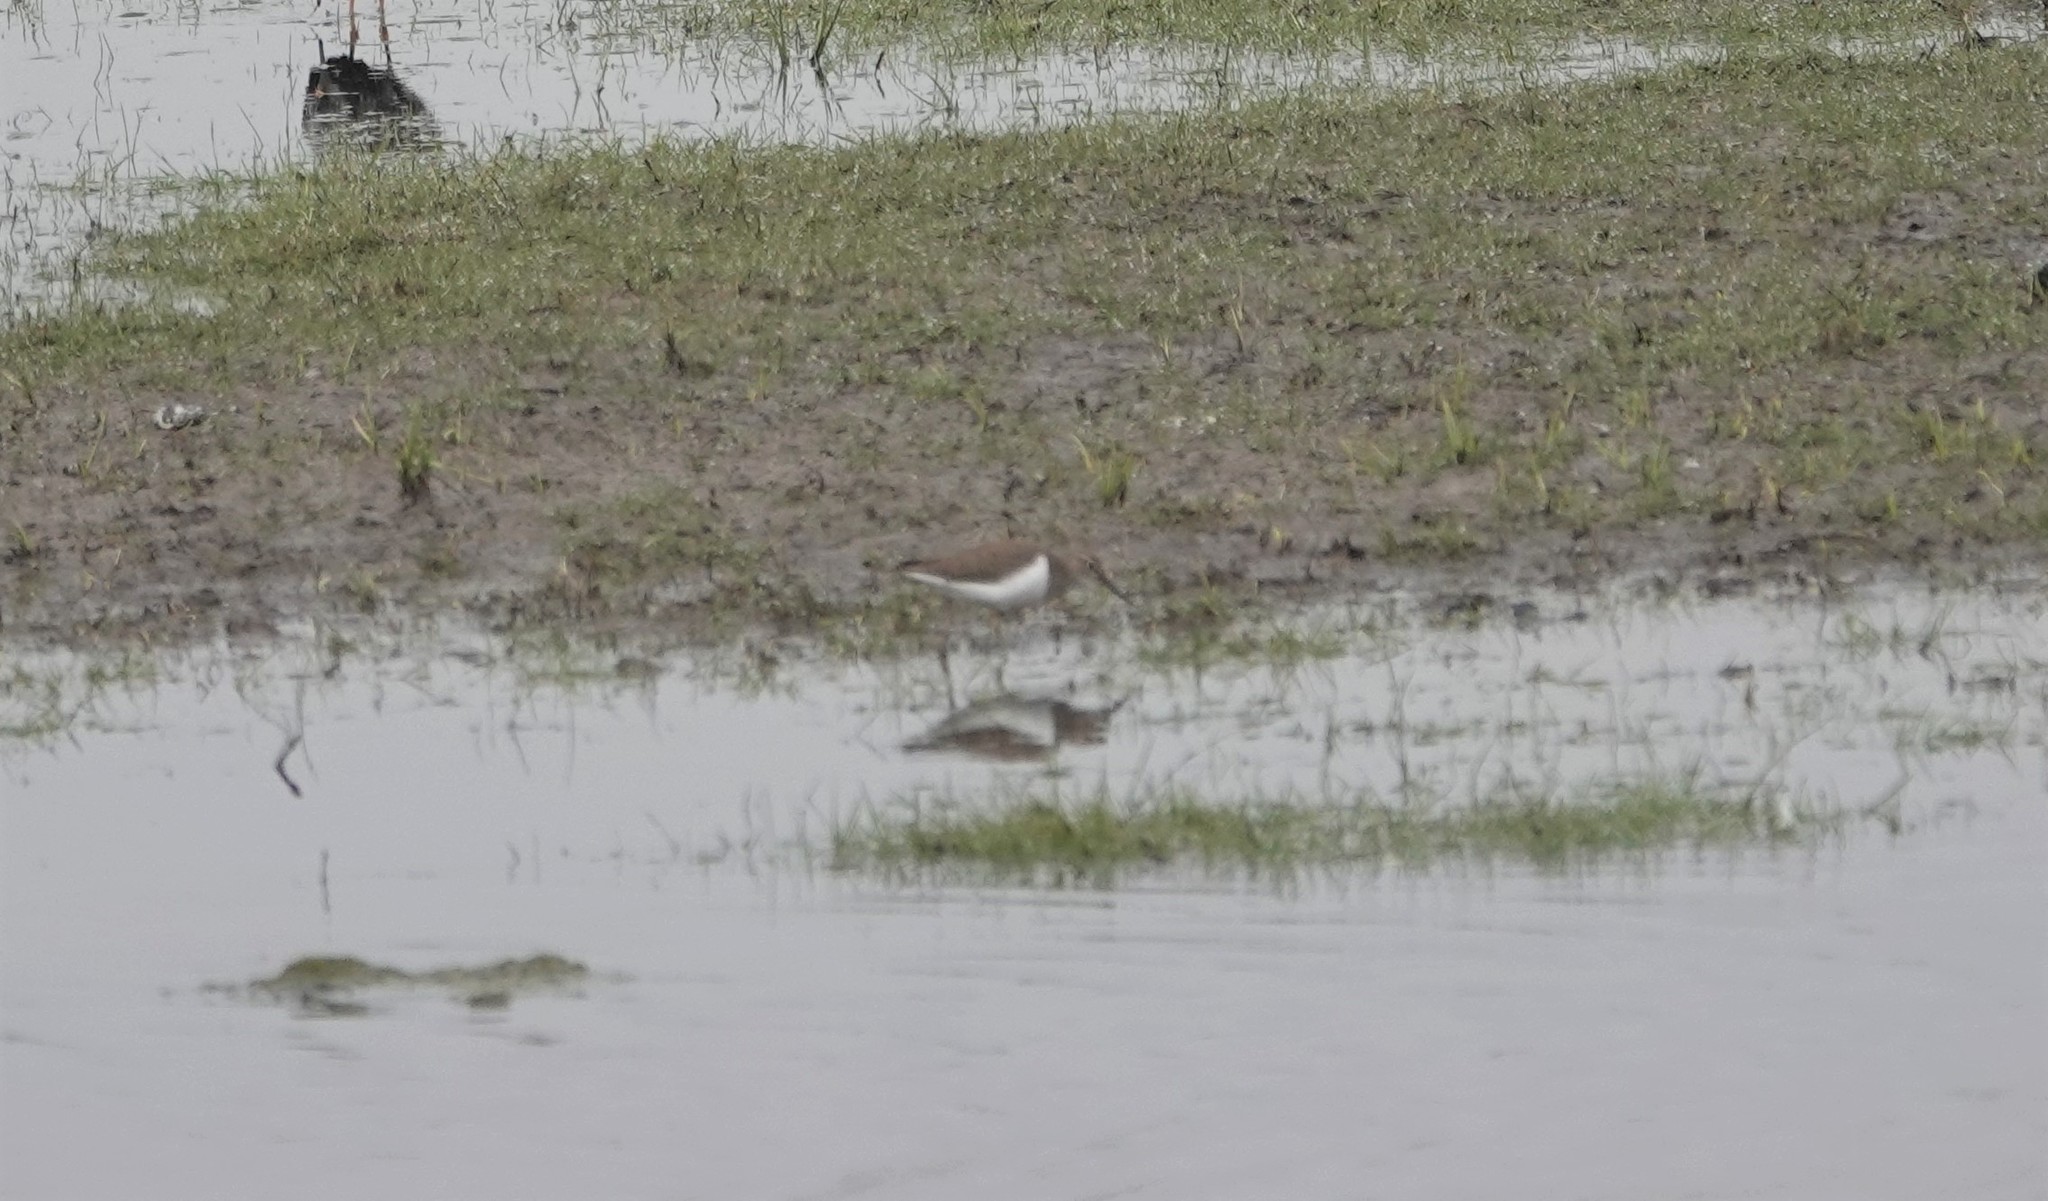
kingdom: Animalia
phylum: Chordata
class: Aves
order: Charadriiformes
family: Scolopacidae
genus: Actitis
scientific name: Actitis hypoleucos
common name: Common sandpiper
